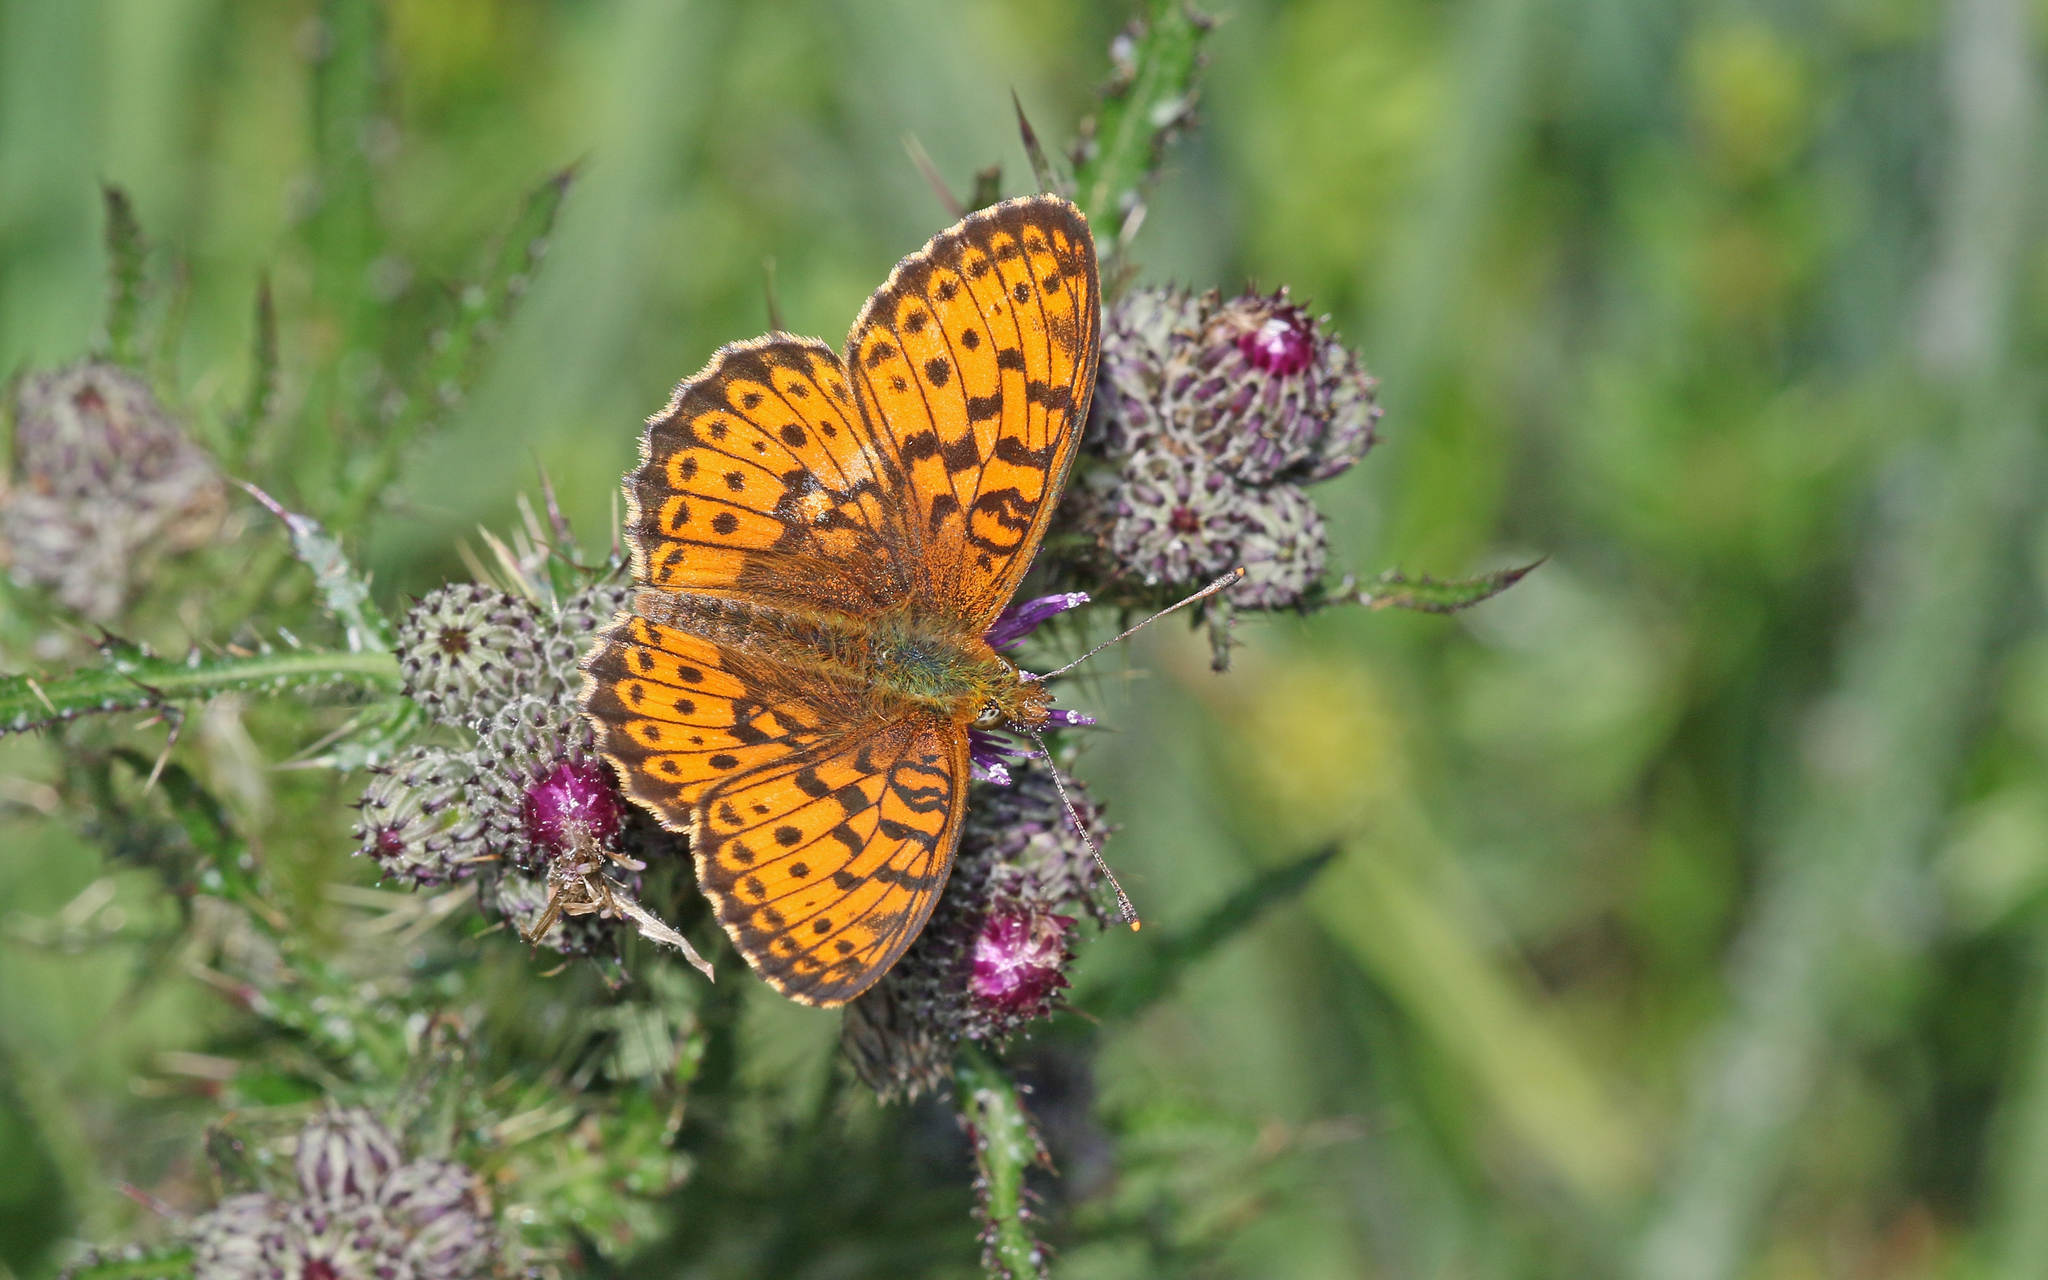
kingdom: Animalia
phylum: Arthropoda
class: Insecta
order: Lepidoptera
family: Nymphalidae
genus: Brenthis
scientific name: Brenthis ino
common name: Lesser marbled fritillary
